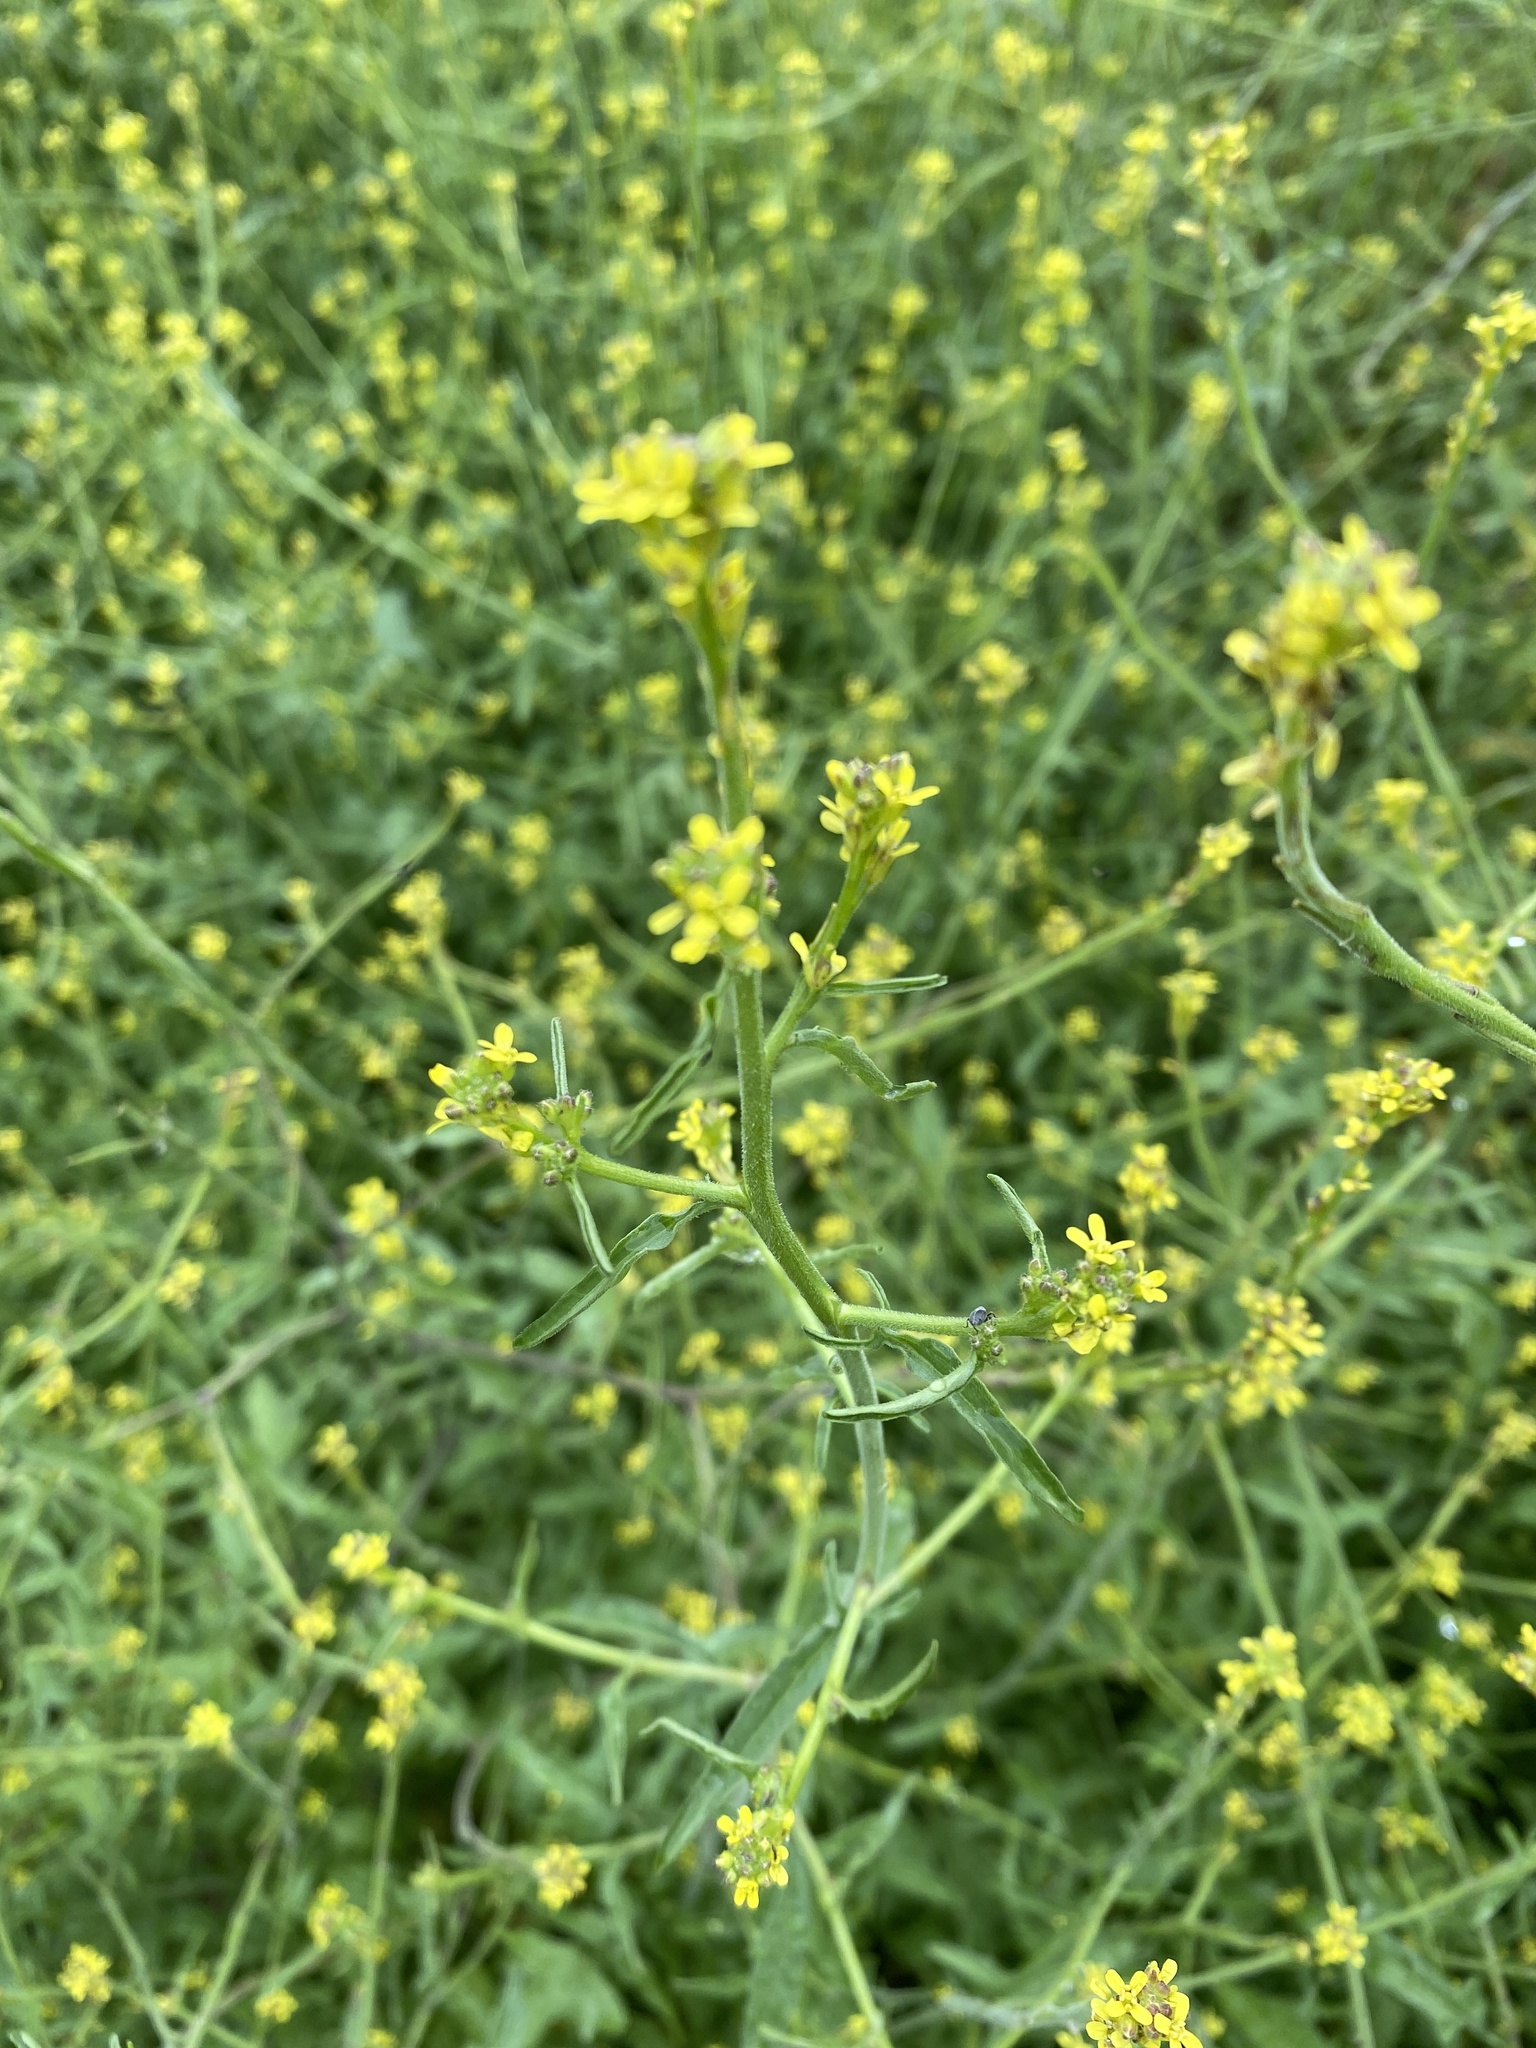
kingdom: Plantae
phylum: Tracheophyta
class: Magnoliopsida
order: Brassicales
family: Brassicaceae
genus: Sisymbrium
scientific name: Sisymbrium officinale
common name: Hedge mustard
